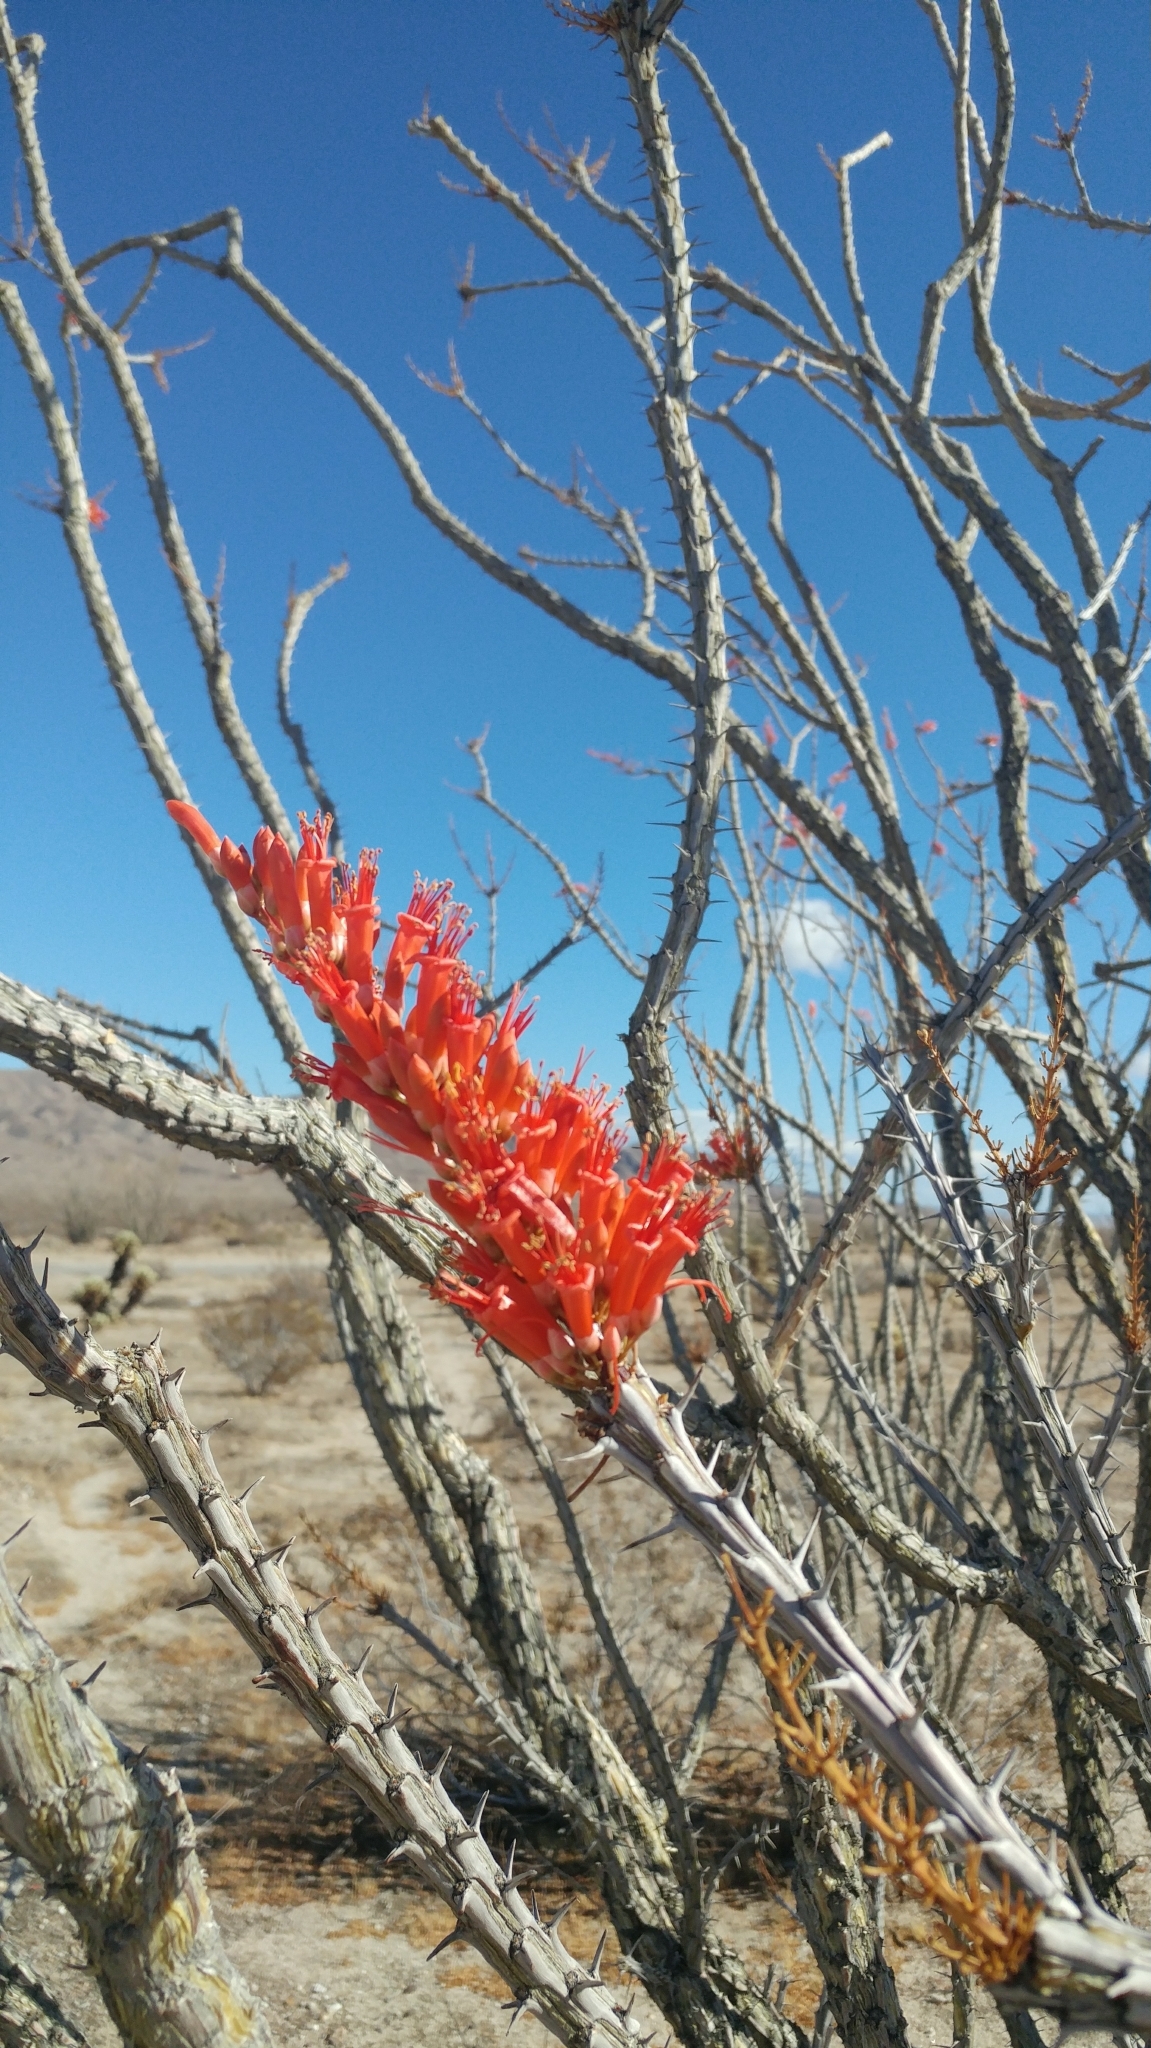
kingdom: Plantae
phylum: Tracheophyta
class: Magnoliopsida
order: Ericales
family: Fouquieriaceae
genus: Fouquieria
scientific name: Fouquieria splendens
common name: Vine-cactus
